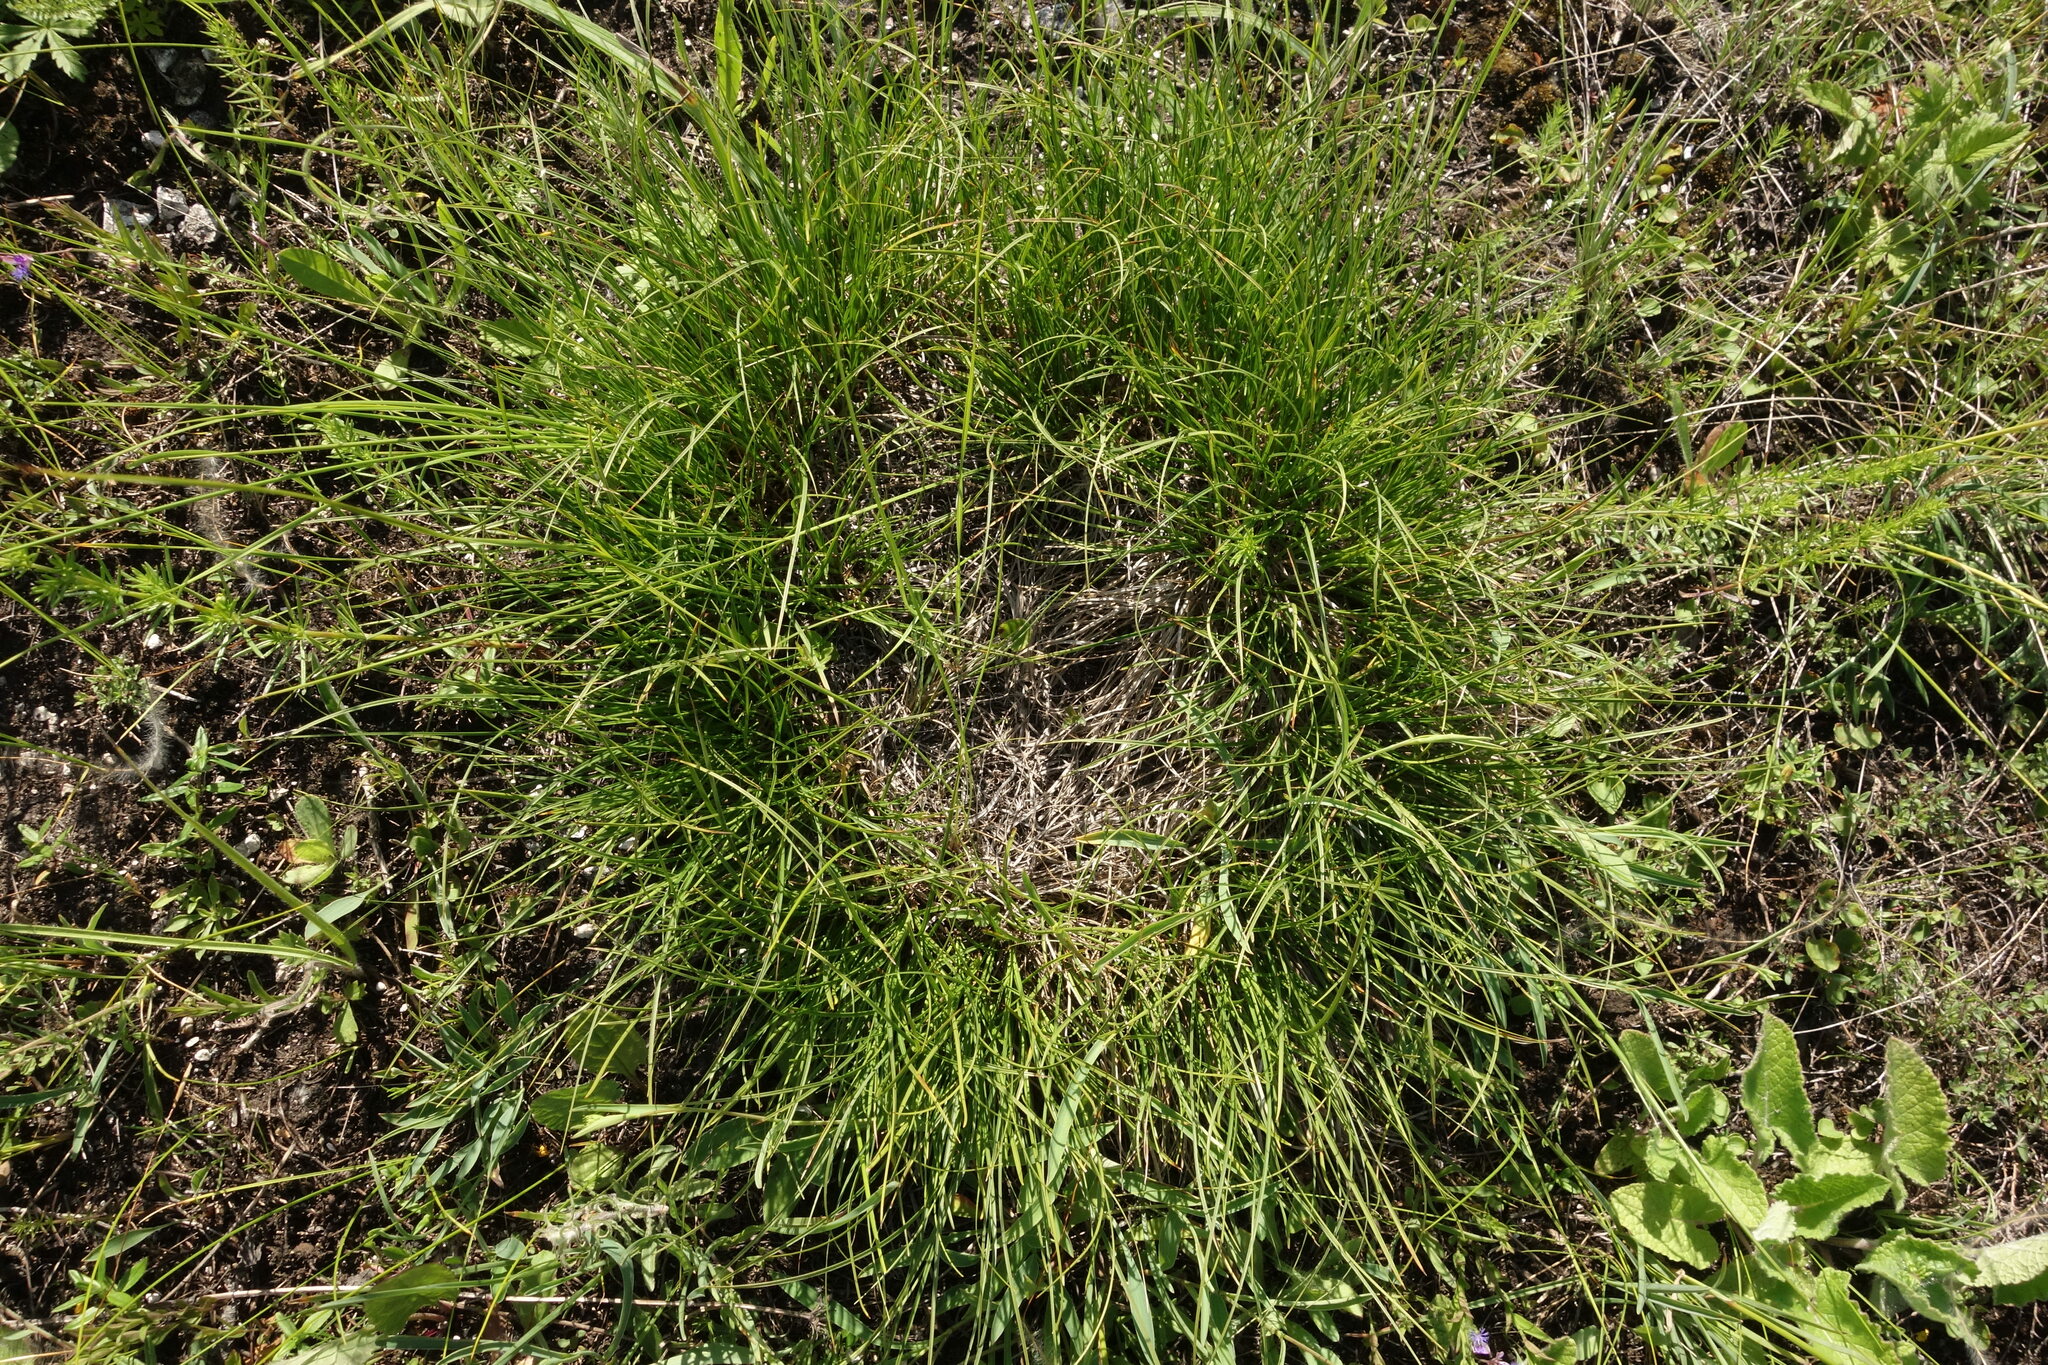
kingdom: Plantae
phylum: Tracheophyta
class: Liliopsida
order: Poales
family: Cyperaceae
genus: Carex
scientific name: Carex humilis
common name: Dwarf sedge
